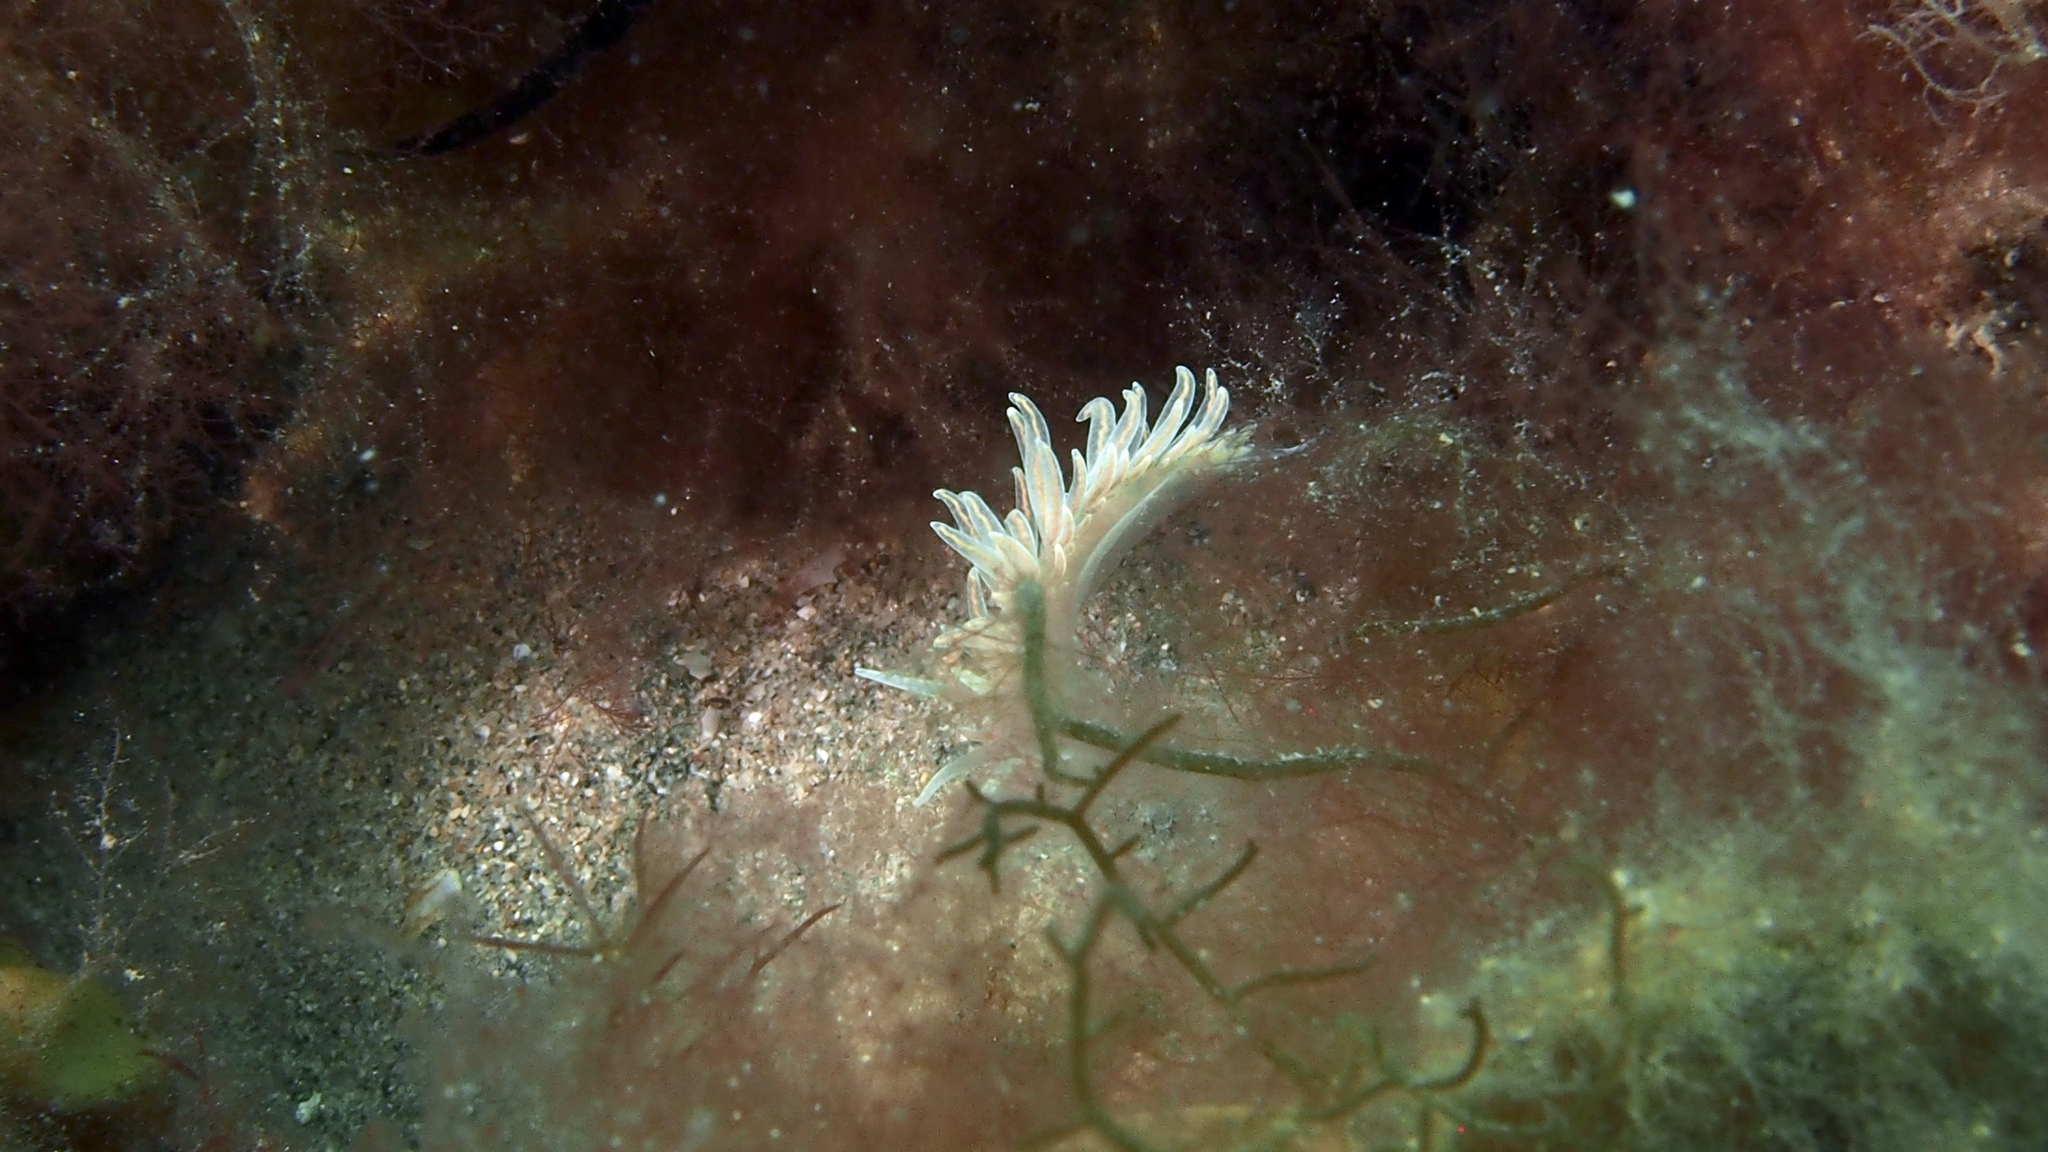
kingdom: Animalia
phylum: Mollusca
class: Gastropoda
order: Nudibranchia
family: Myrrhinidae
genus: Phyllodesmium
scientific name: Phyllodesmium serratum
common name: Coral nudibranch
